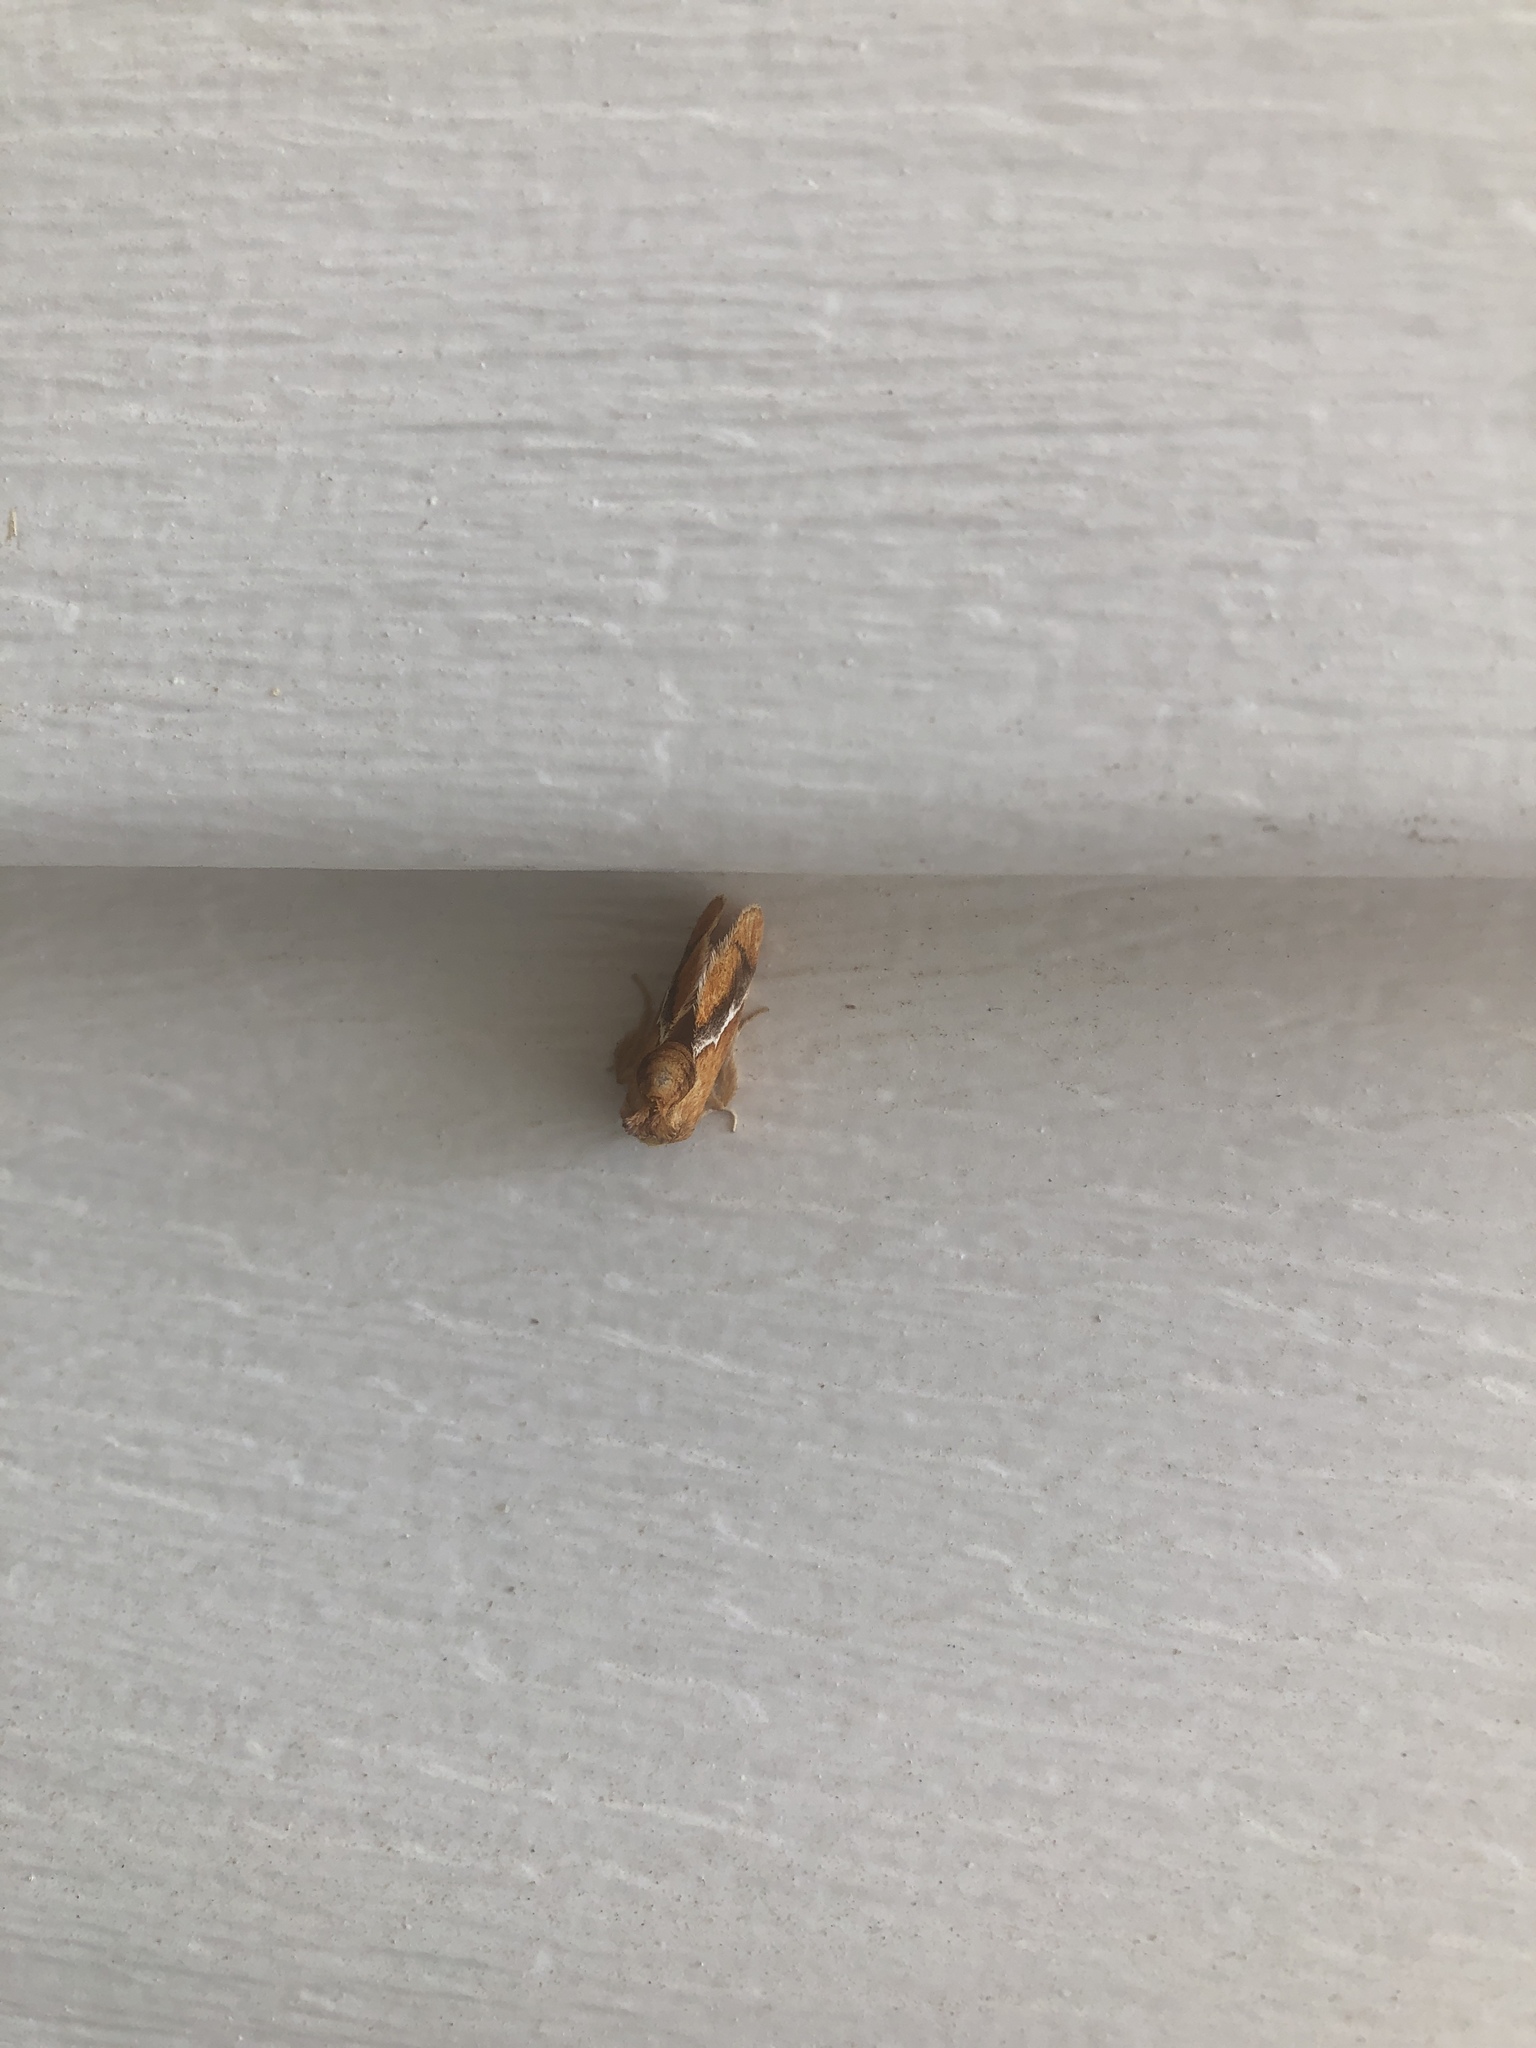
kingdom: Animalia
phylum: Arthropoda
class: Insecta
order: Lepidoptera
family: Limacodidae
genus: Lithacodes
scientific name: Lithacodes fasciola
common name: Yellow-shouldered slug moth
